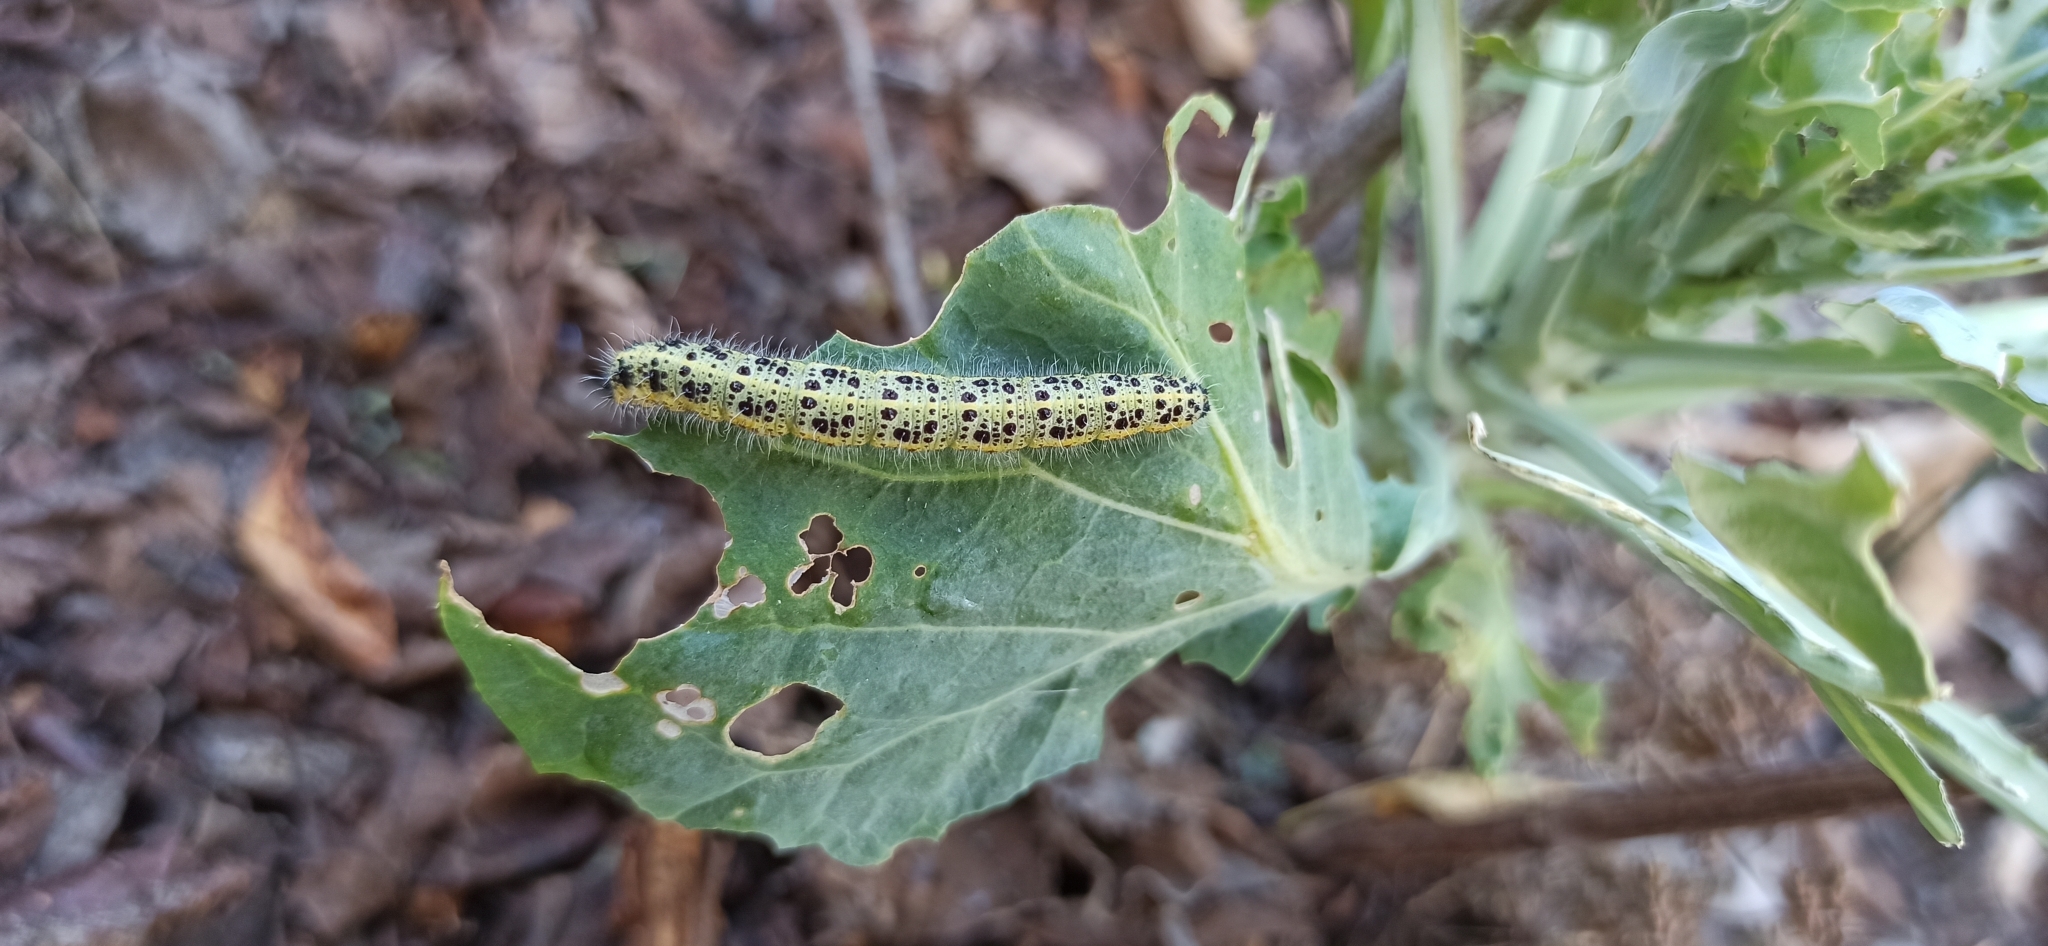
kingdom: Animalia
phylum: Arthropoda
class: Insecta
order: Lepidoptera
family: Pieridae
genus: Pieris
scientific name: Pieris brassicae
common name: Large white
